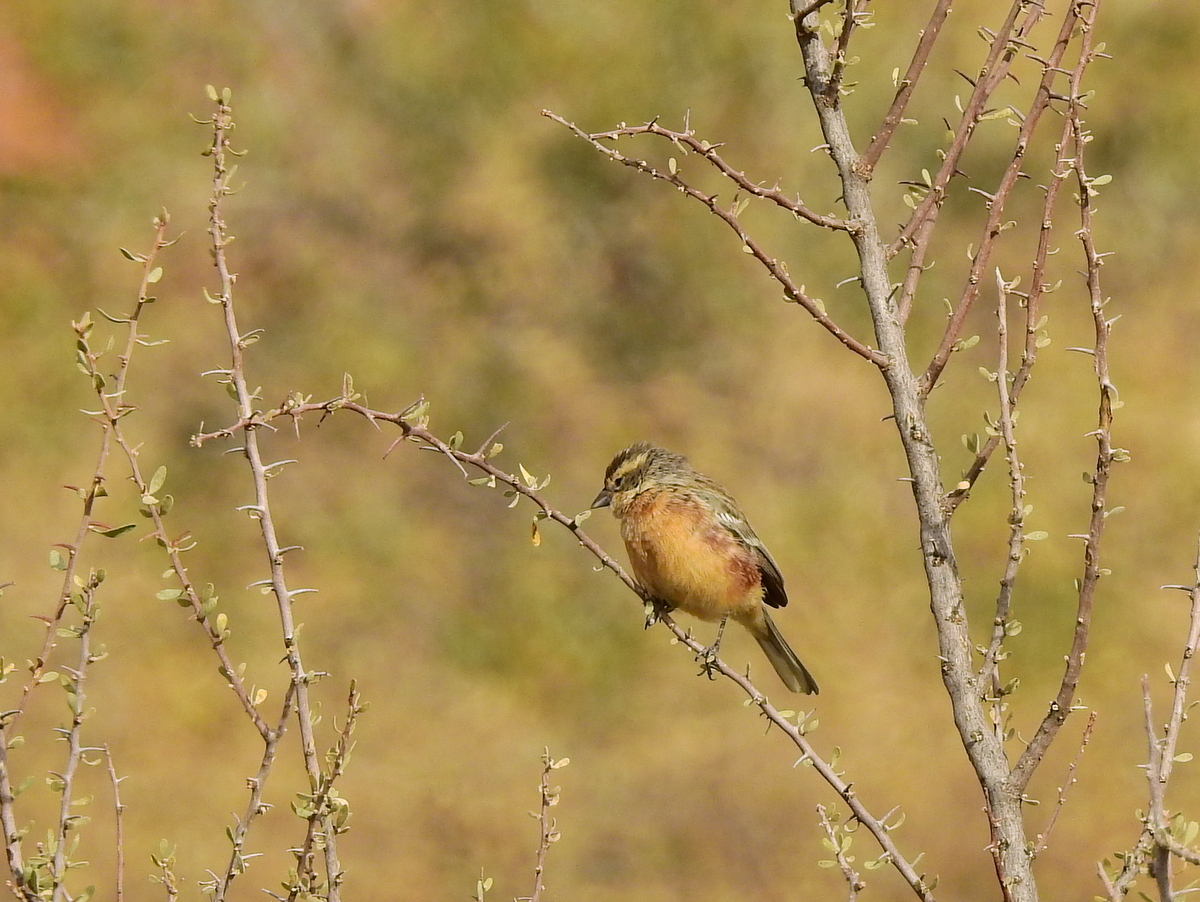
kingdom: Animalia
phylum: Chordata
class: Aves
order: Passeriformes
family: Thraupidae
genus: Poospiza
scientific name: Poospiza ornata
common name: Cinnamon warbling finch
